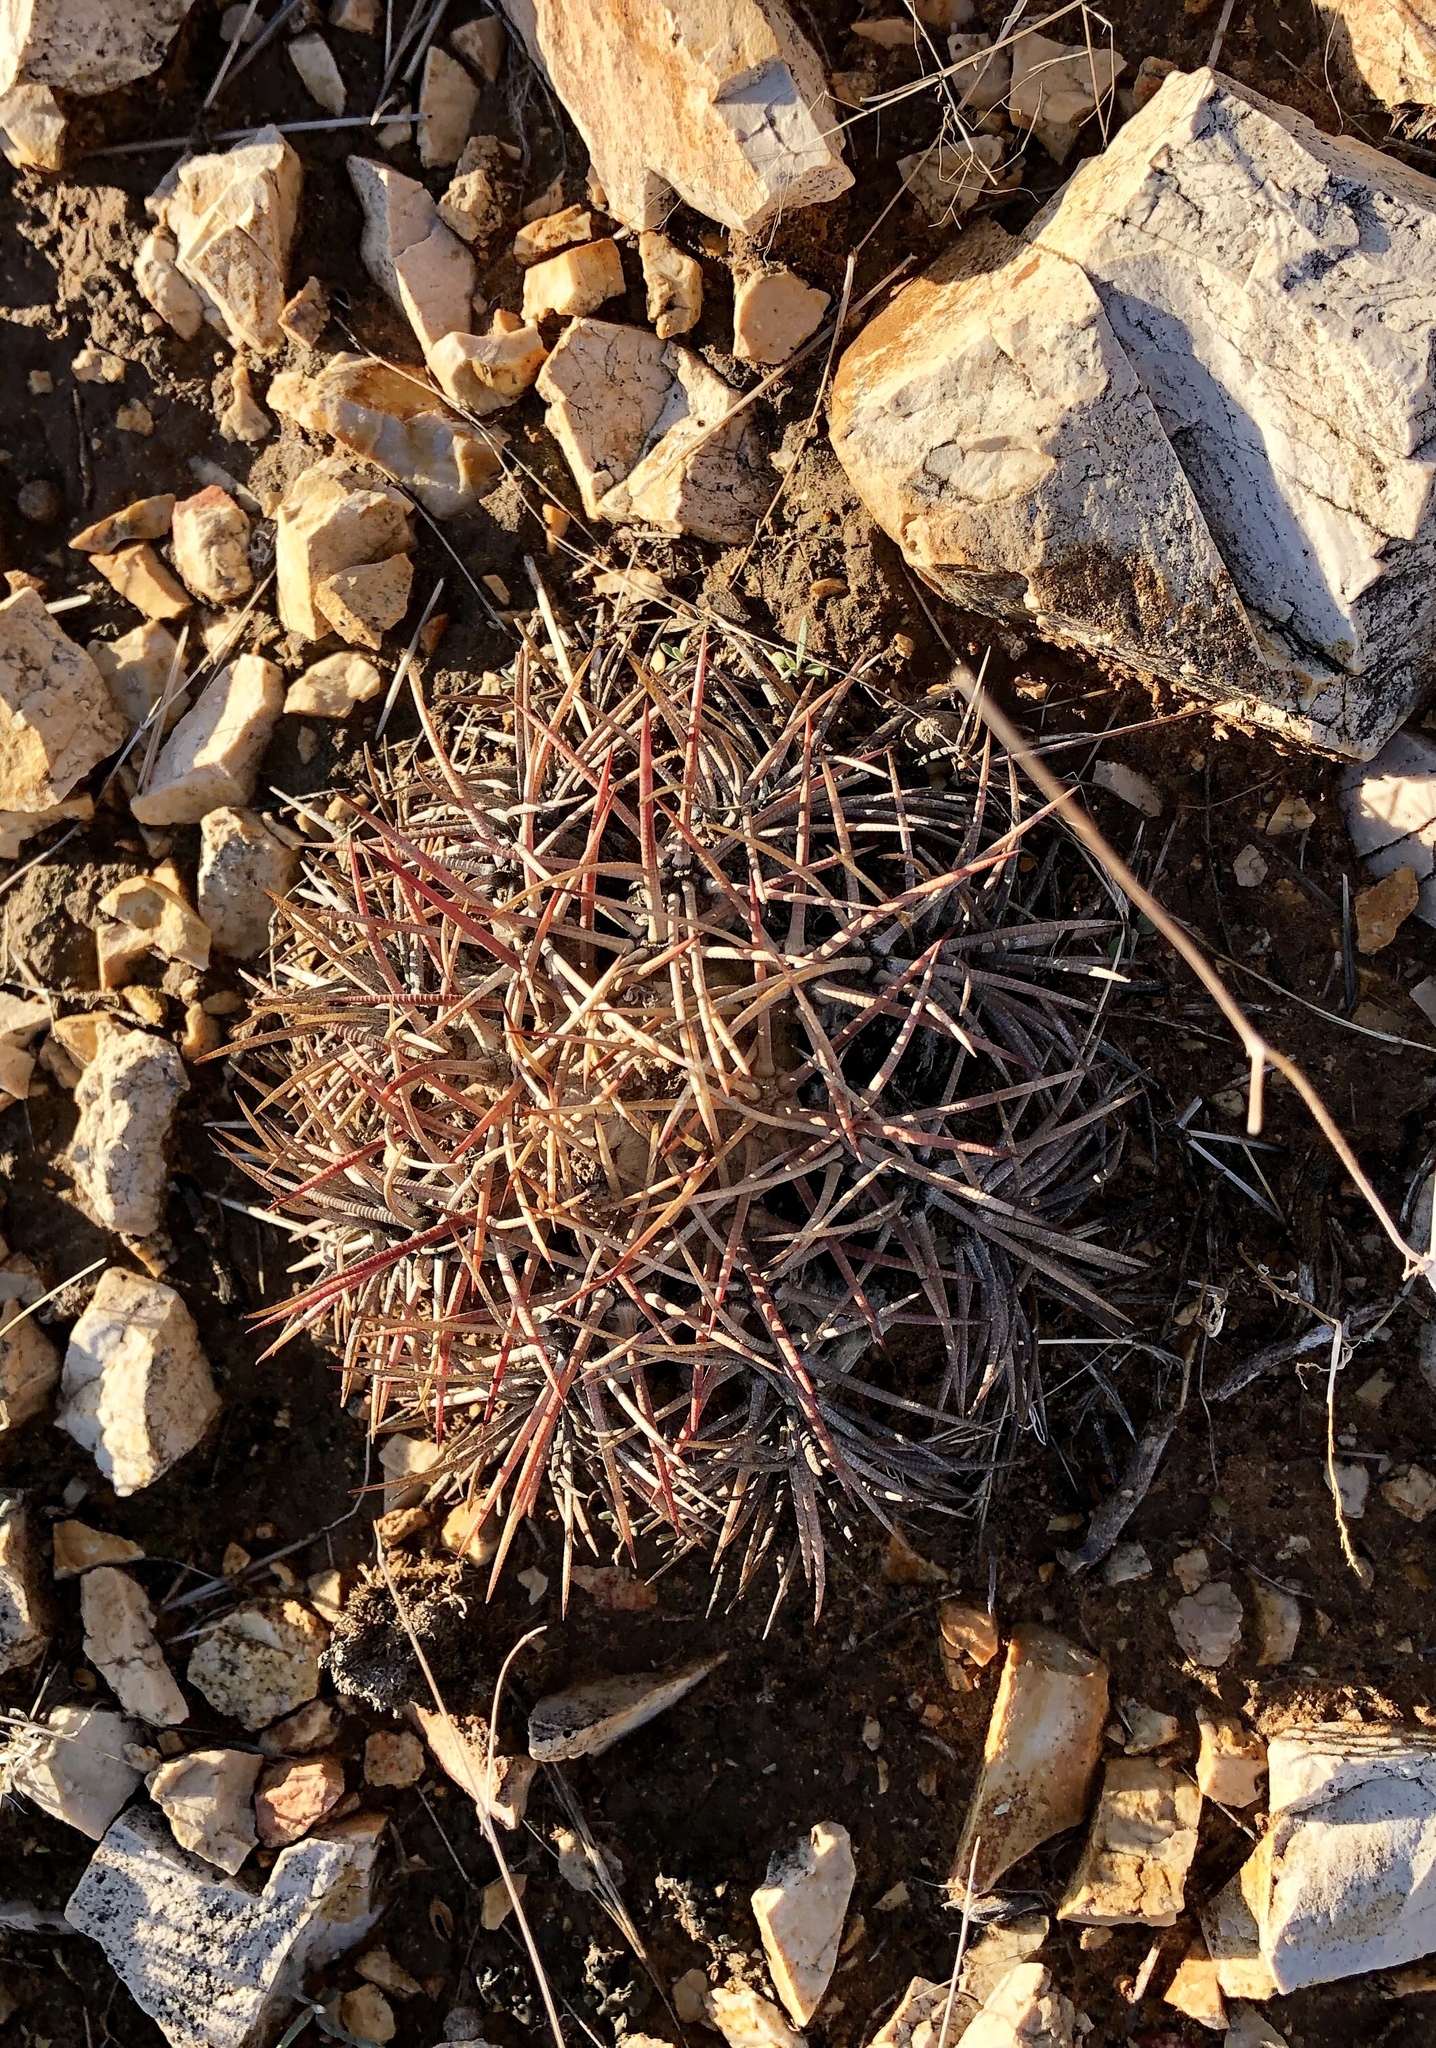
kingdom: Plantae
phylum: Tracheophyta
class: Magnoliopsida
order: Caryophyllales
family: Cactaceae
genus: Echinocactus
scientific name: Echinocactus horizonthalonius
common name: Devilshead
